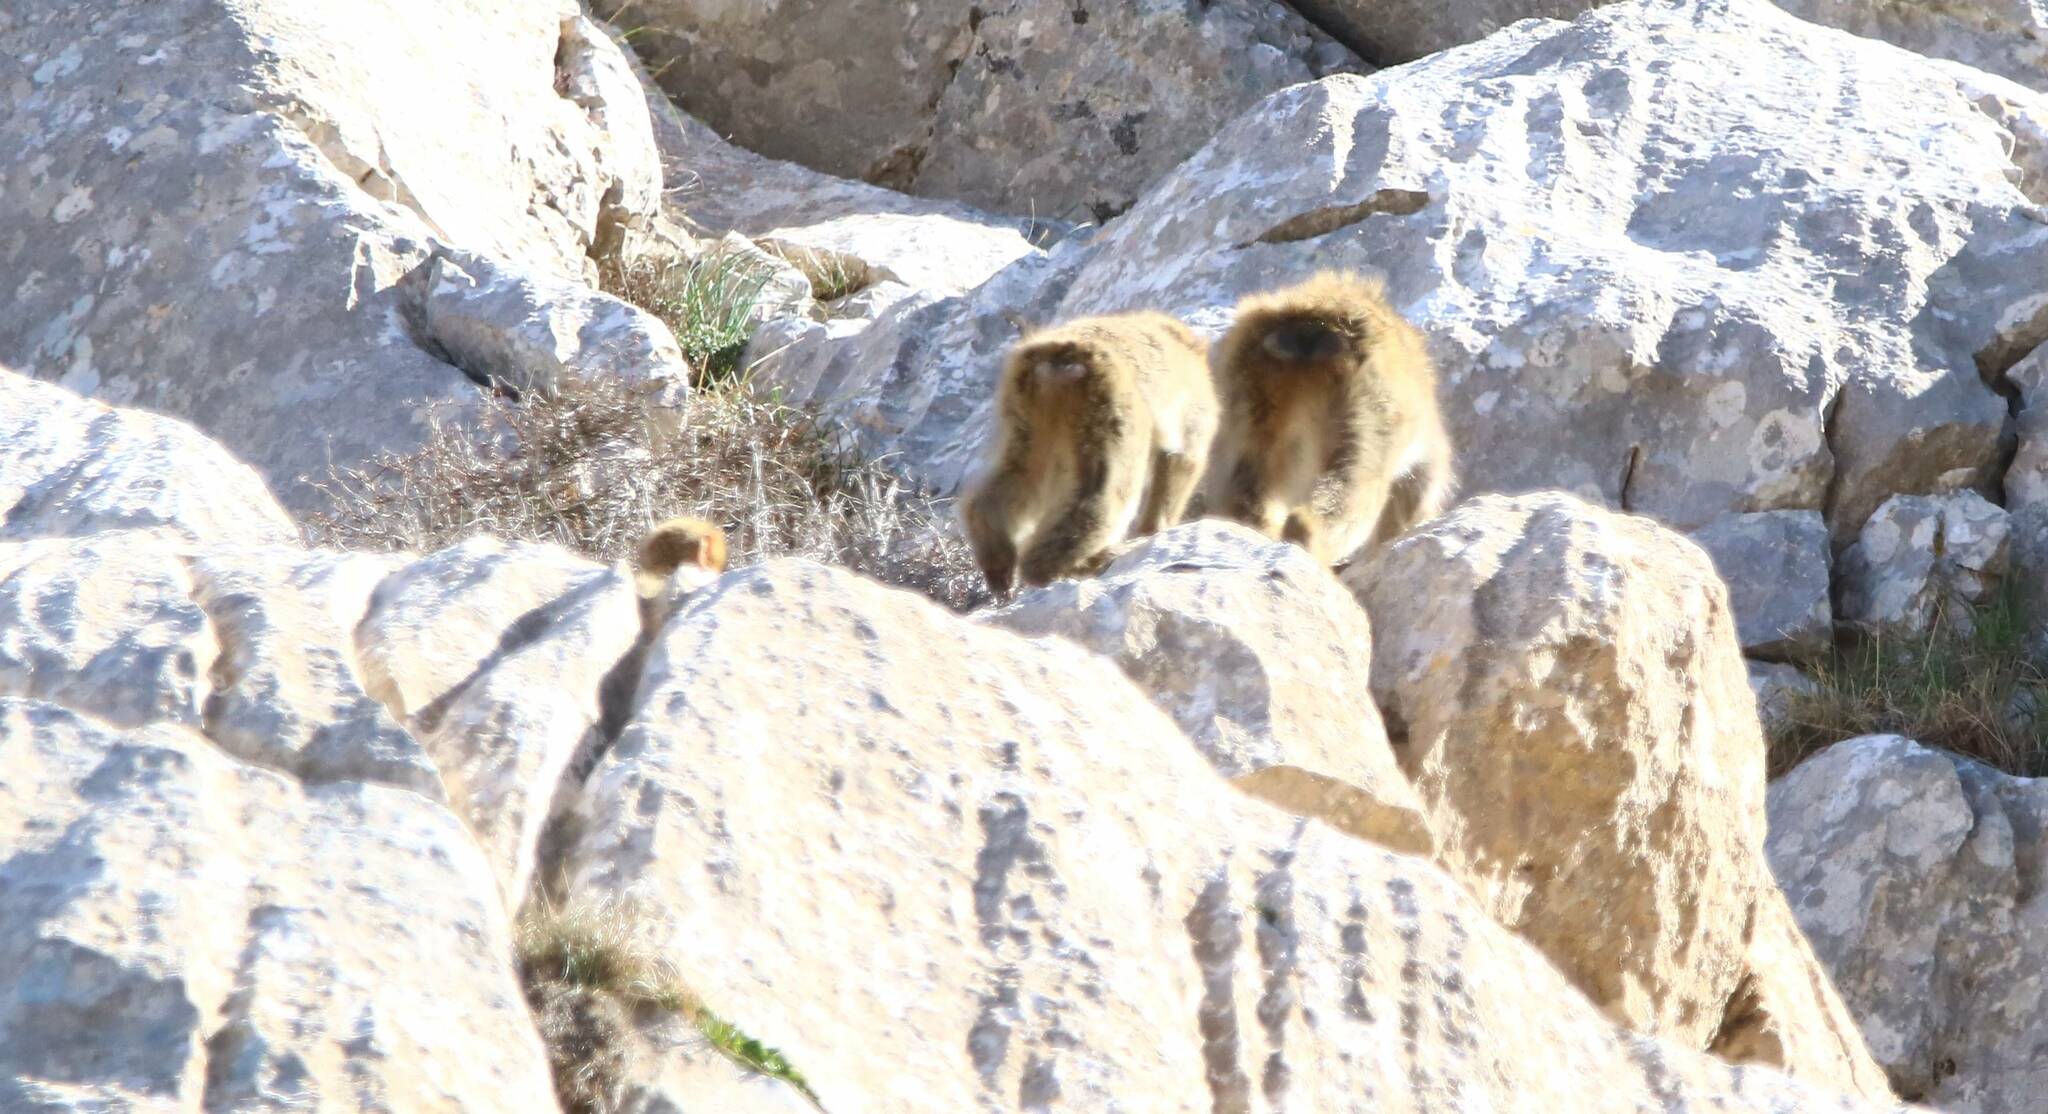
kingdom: Animalia
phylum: Chordata
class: Mammalia
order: Primates
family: Cercopithecidae
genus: Macaca
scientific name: Macaca sylvanus
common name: Barbary macaque
